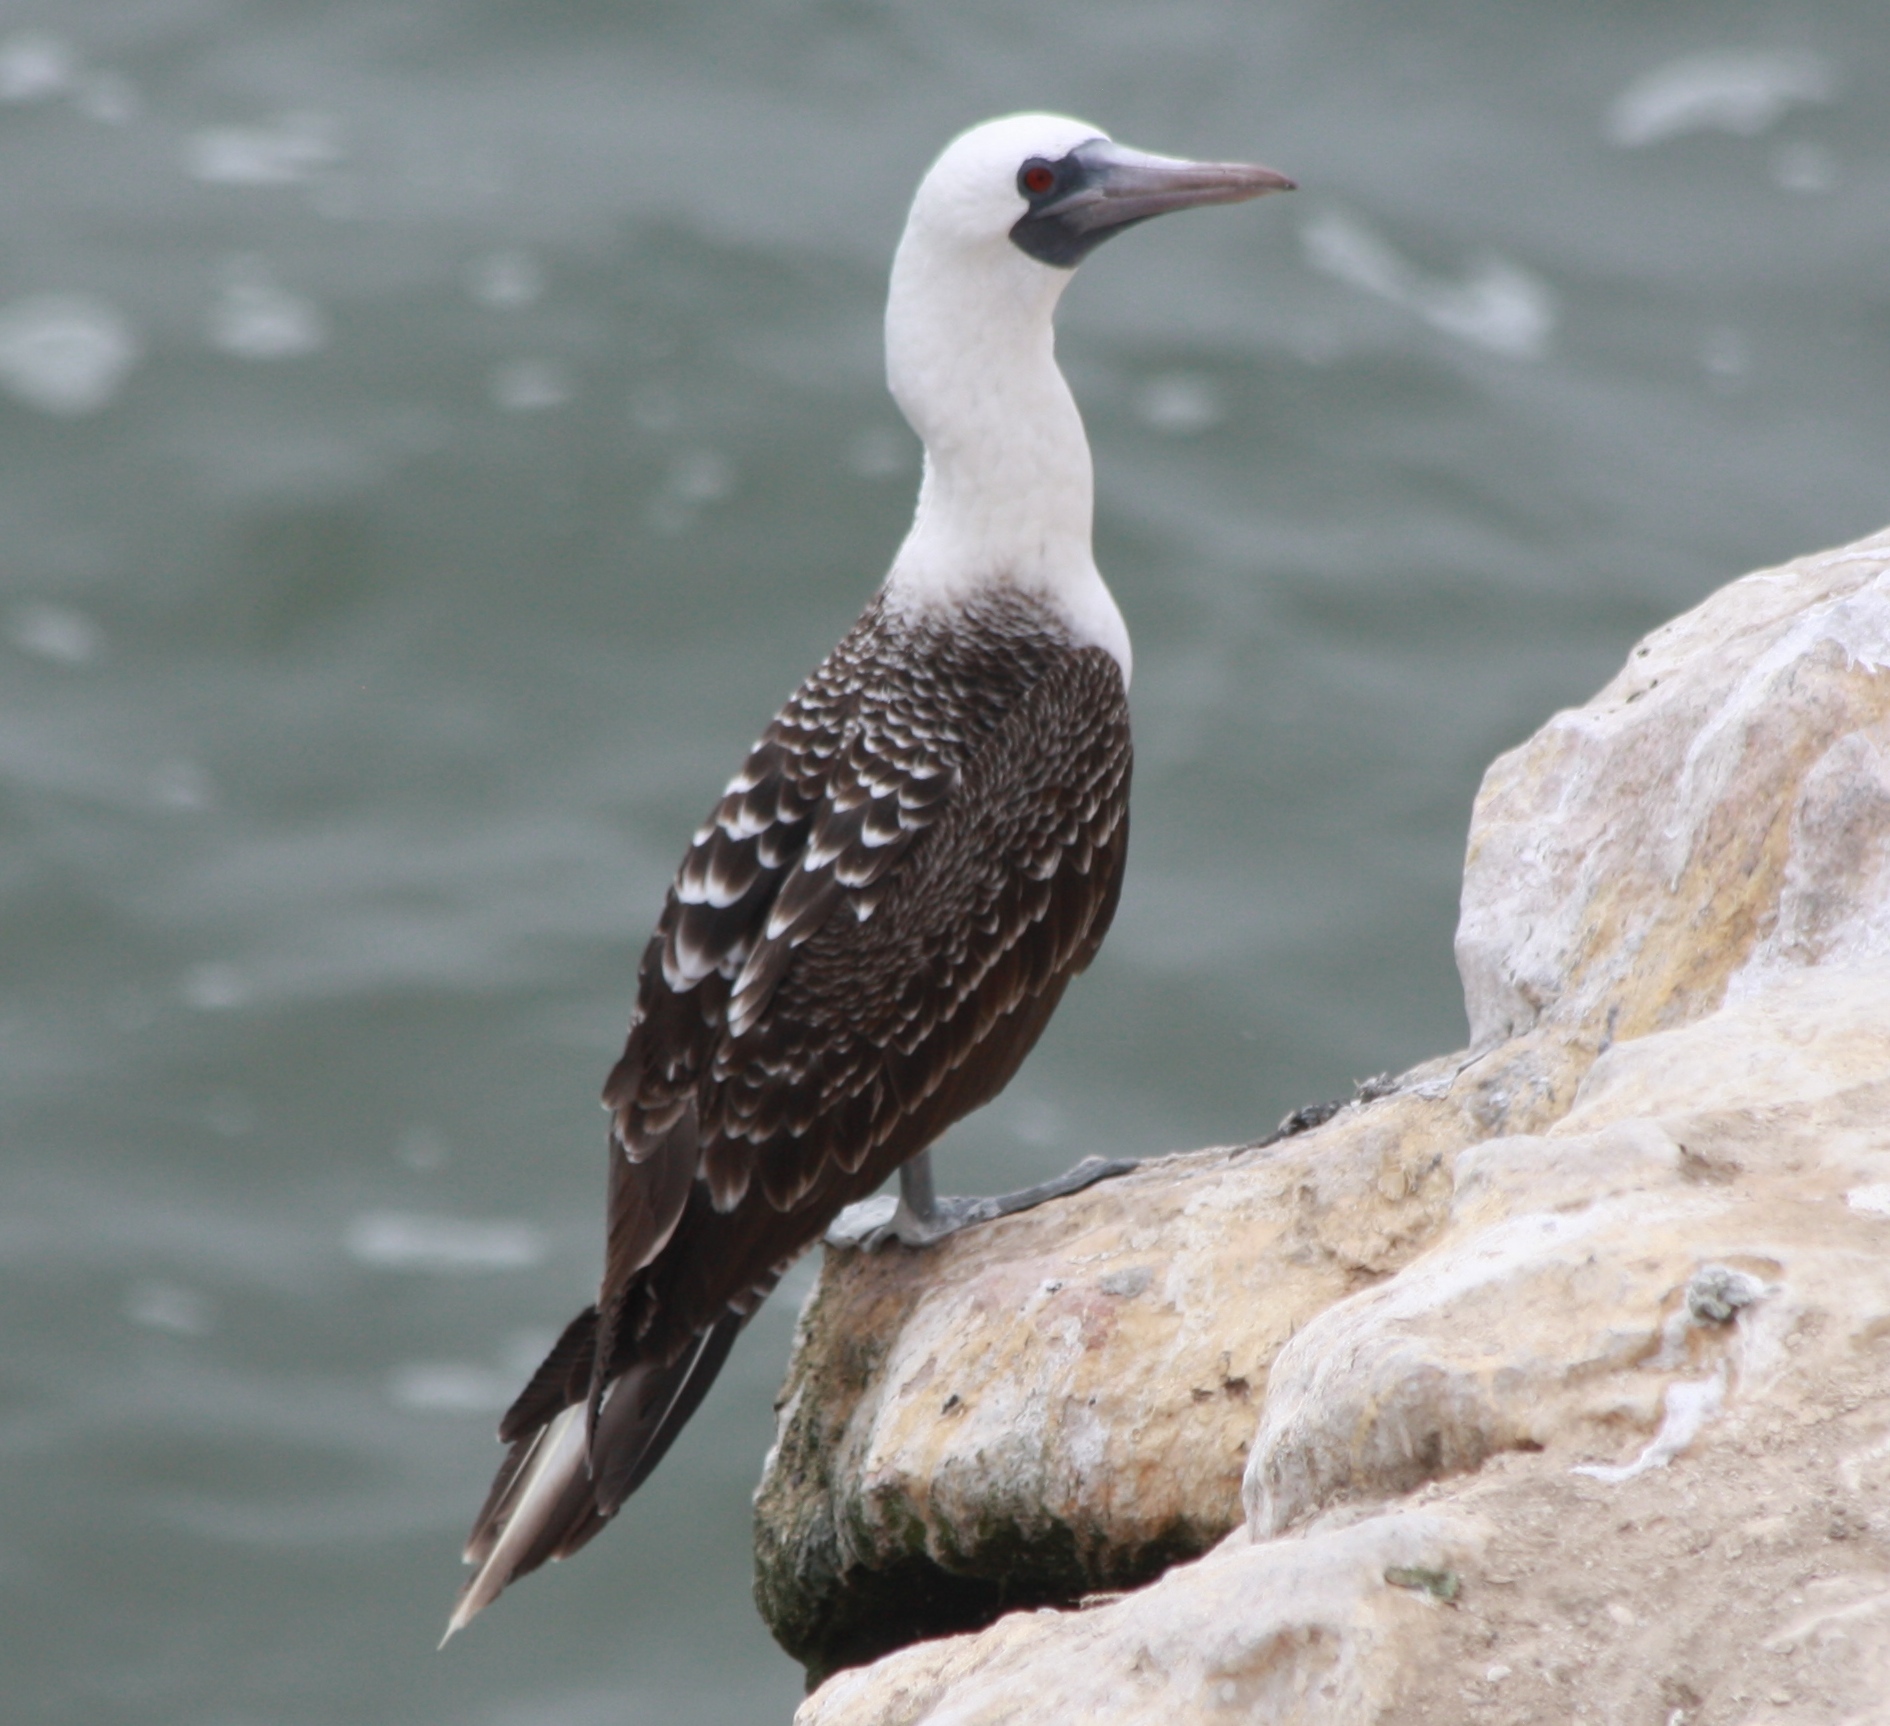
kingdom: Animalia
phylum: Chordata
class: Aves
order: Suliformes
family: Sulidae
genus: Sula
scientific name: Sula variegata
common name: Peruvian booby
